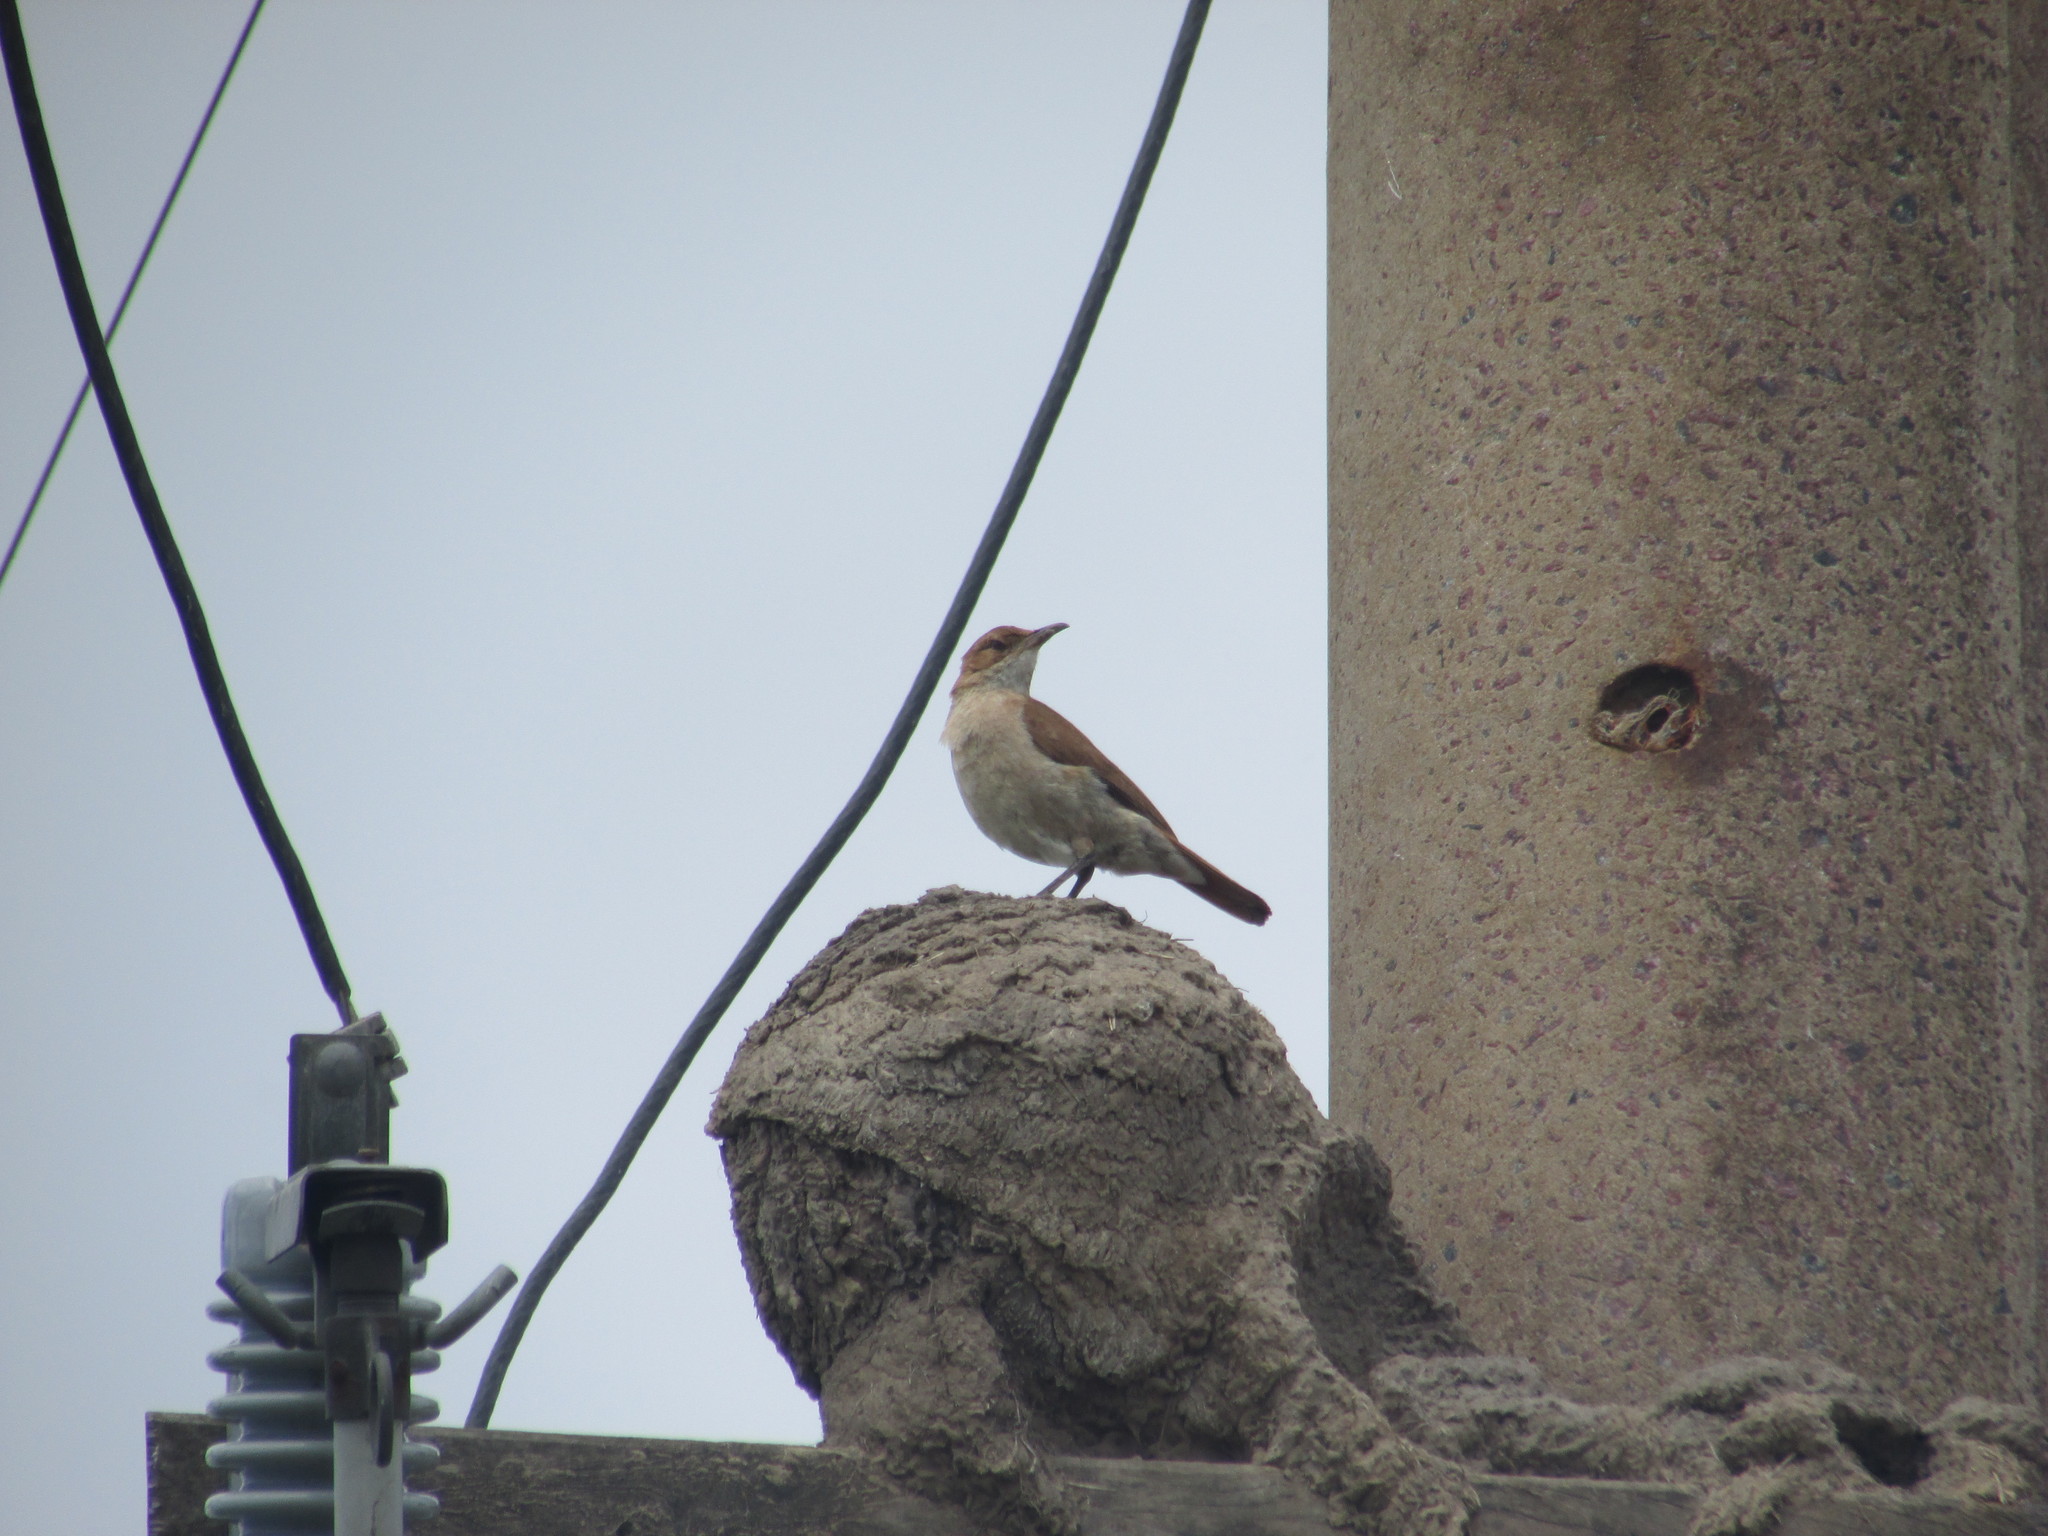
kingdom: Animalia
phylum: Chordata
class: Aves
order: Passeriformes
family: Furnariidae
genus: Furnarius
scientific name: Furnarius rufus
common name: Rufous hornero
